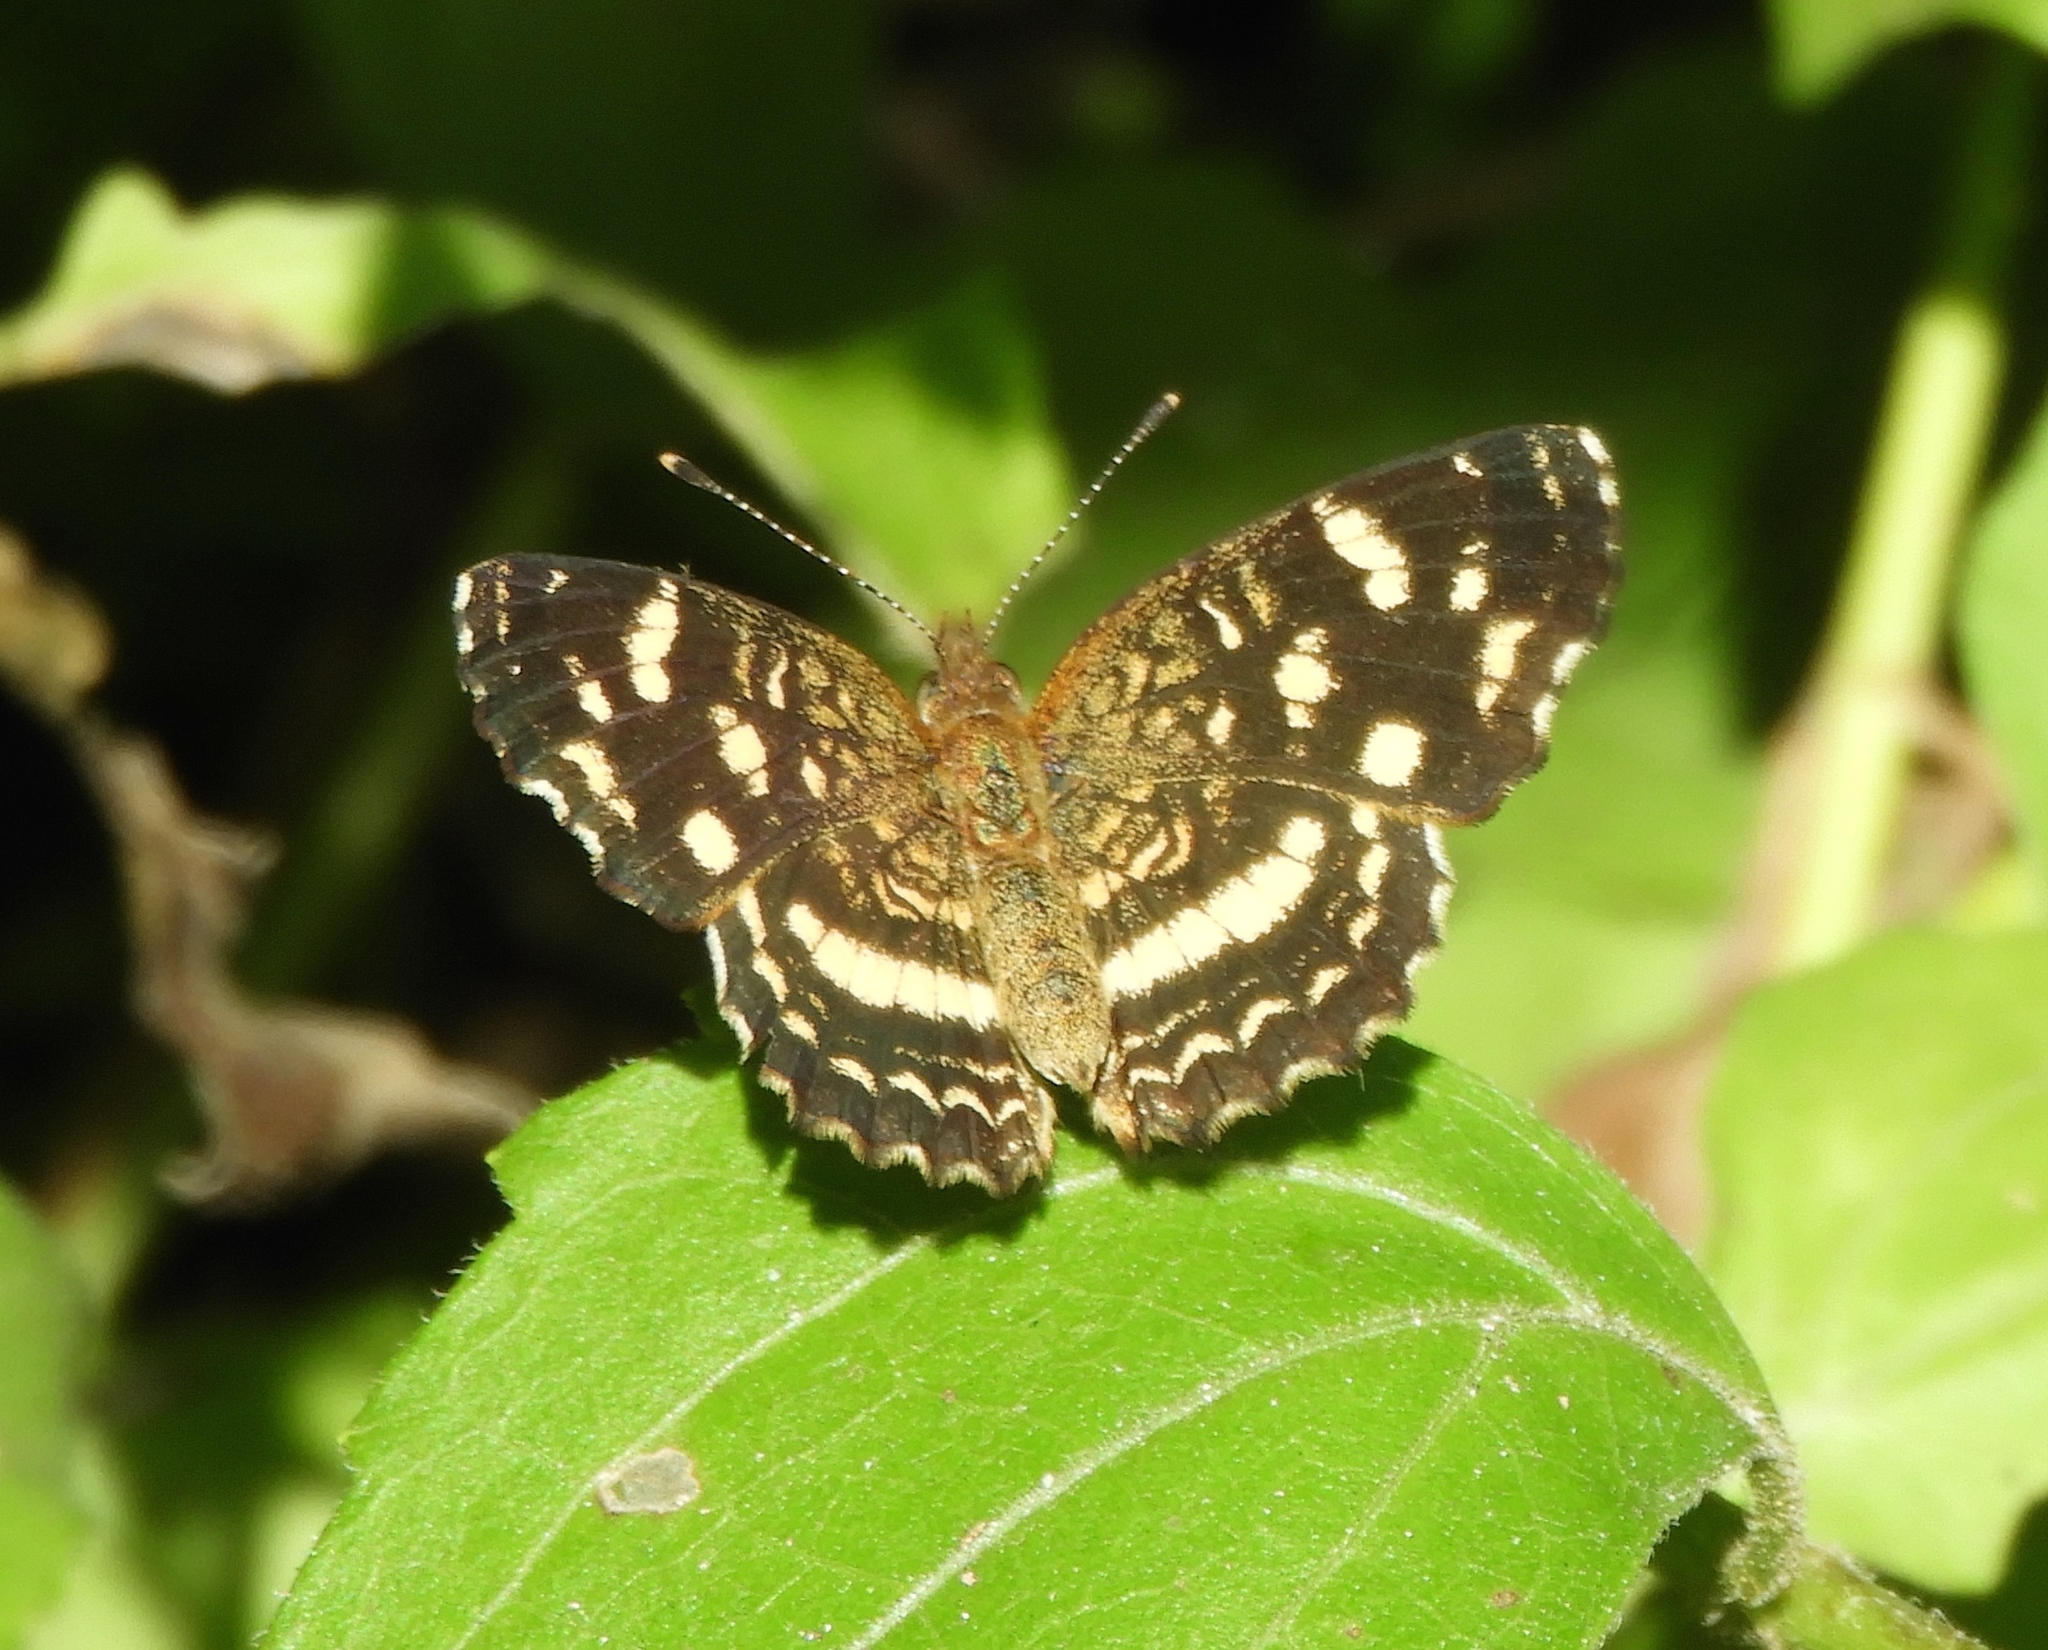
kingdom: Animalia
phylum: Arthropoda
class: Insecta
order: Lepidoptera
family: Nymphalidae
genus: Anthanassa
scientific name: Anthanassa tulcis
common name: Pale-banded crescent
